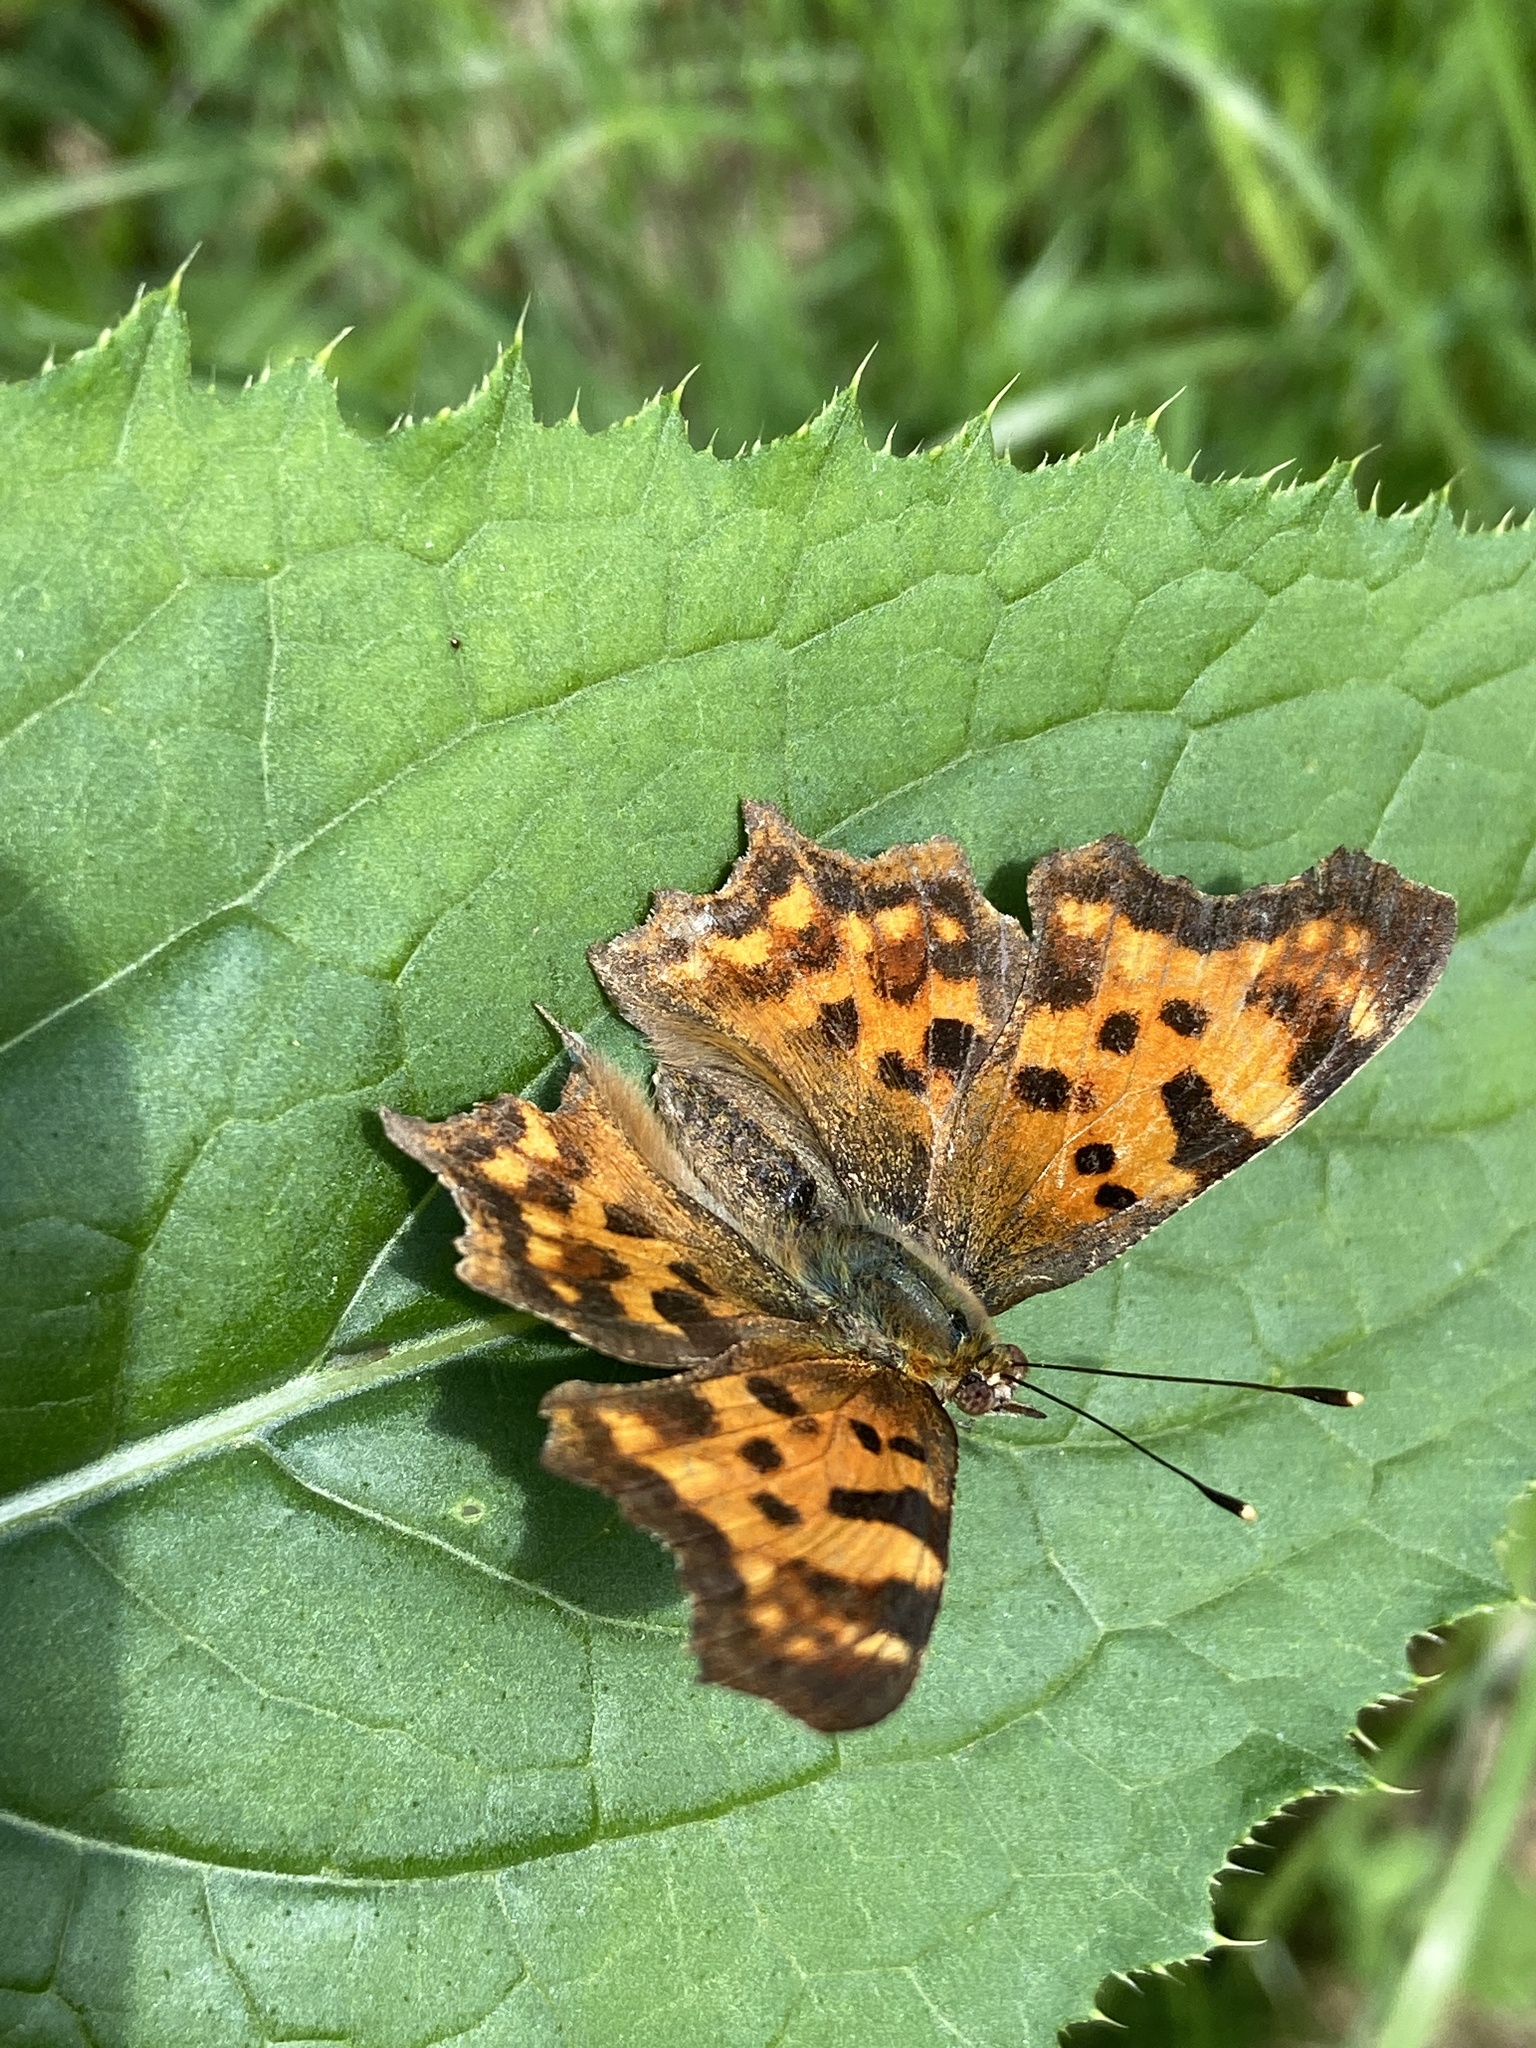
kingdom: Animalia
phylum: Arthropoda
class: Insecta
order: Lepidoptera
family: Nymphalidae
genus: Polygonia
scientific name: Polygonia c-album
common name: Comma
